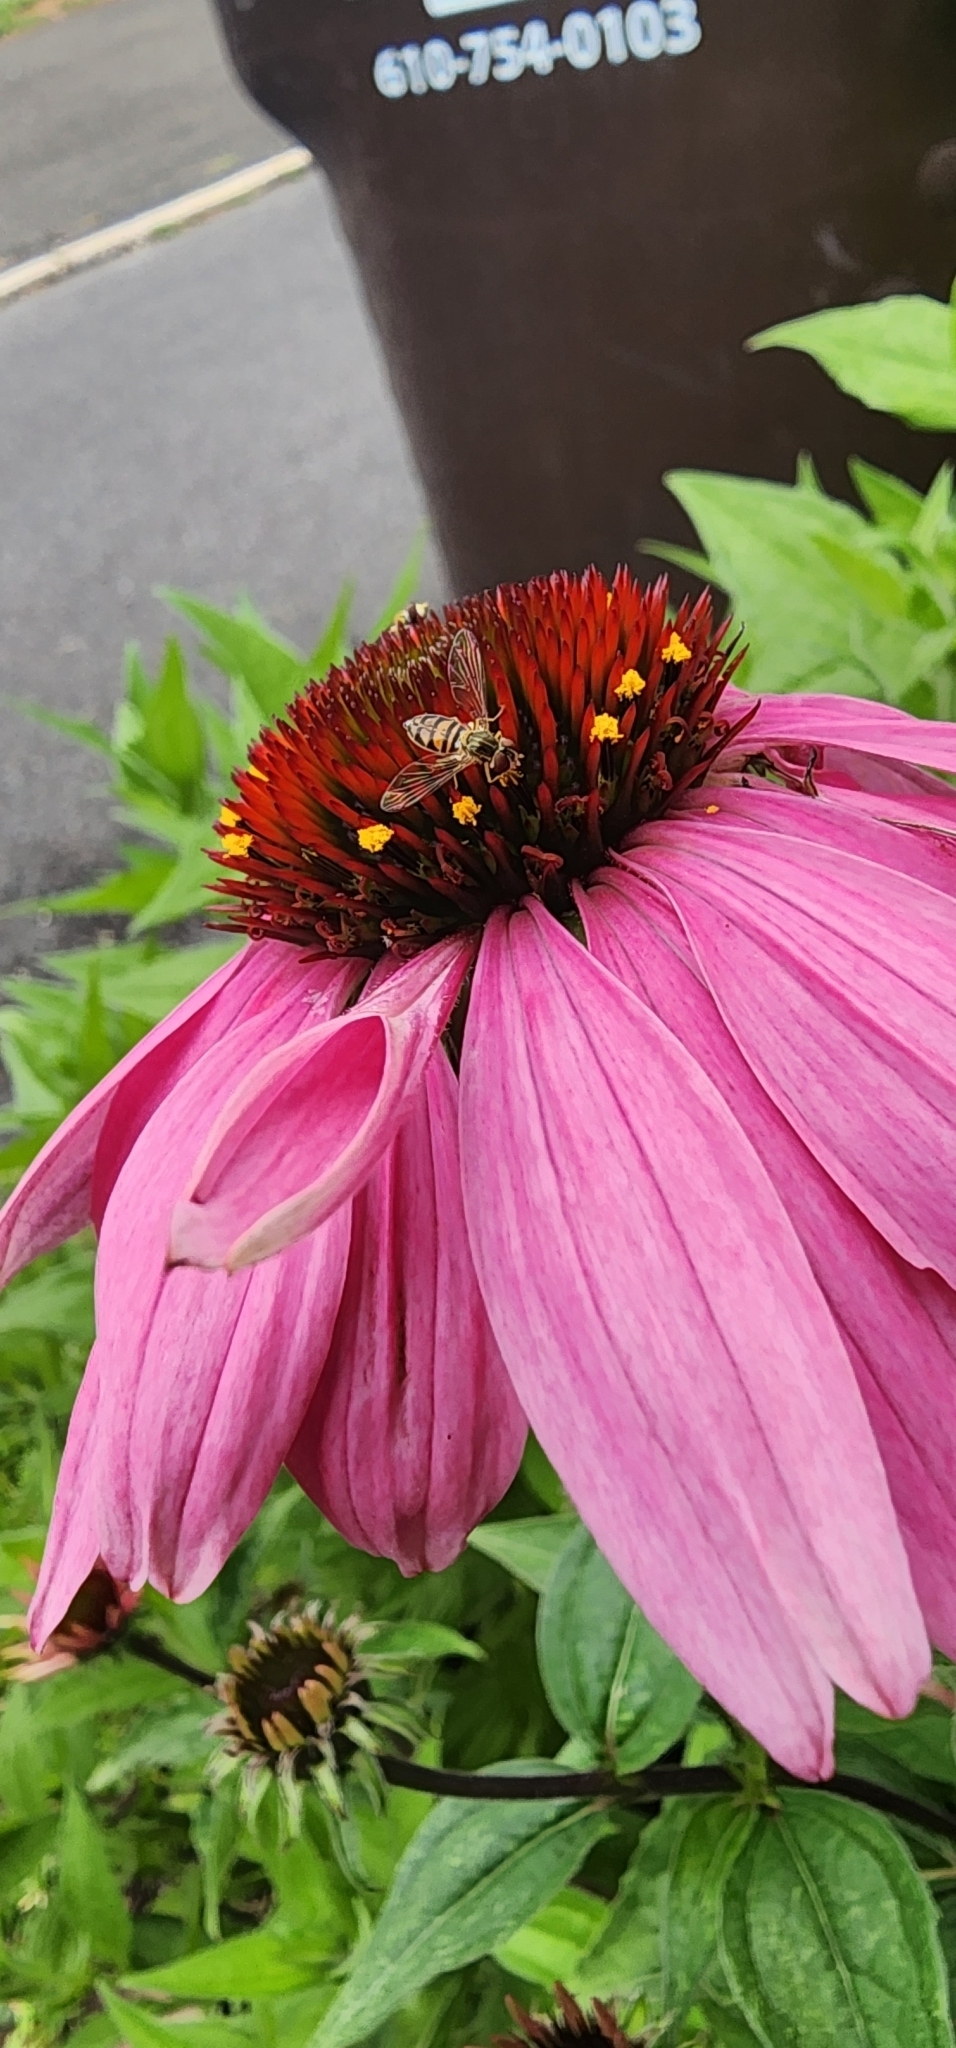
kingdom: Animalia
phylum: Arthropoda
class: Insecta
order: Diptera
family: Syrphidae
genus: Toxomerus
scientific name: Toxomerus marginatus
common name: Syrphid fly
